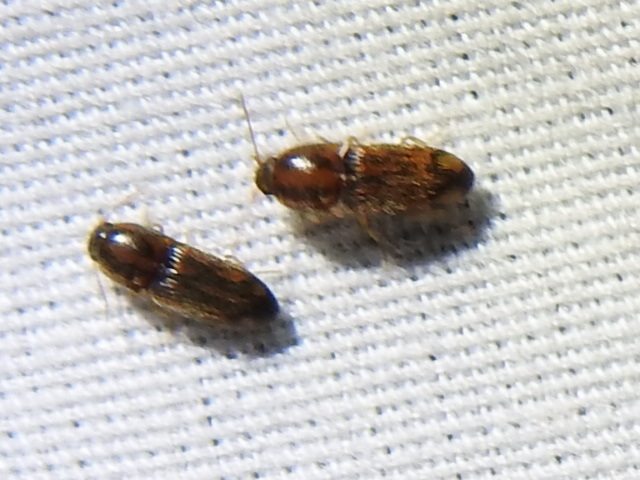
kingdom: Animalia
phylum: Arthropoda
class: Insecta
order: Coleoptera
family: Elateridae
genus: Monocrepidius
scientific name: Monocrepidius bellus
